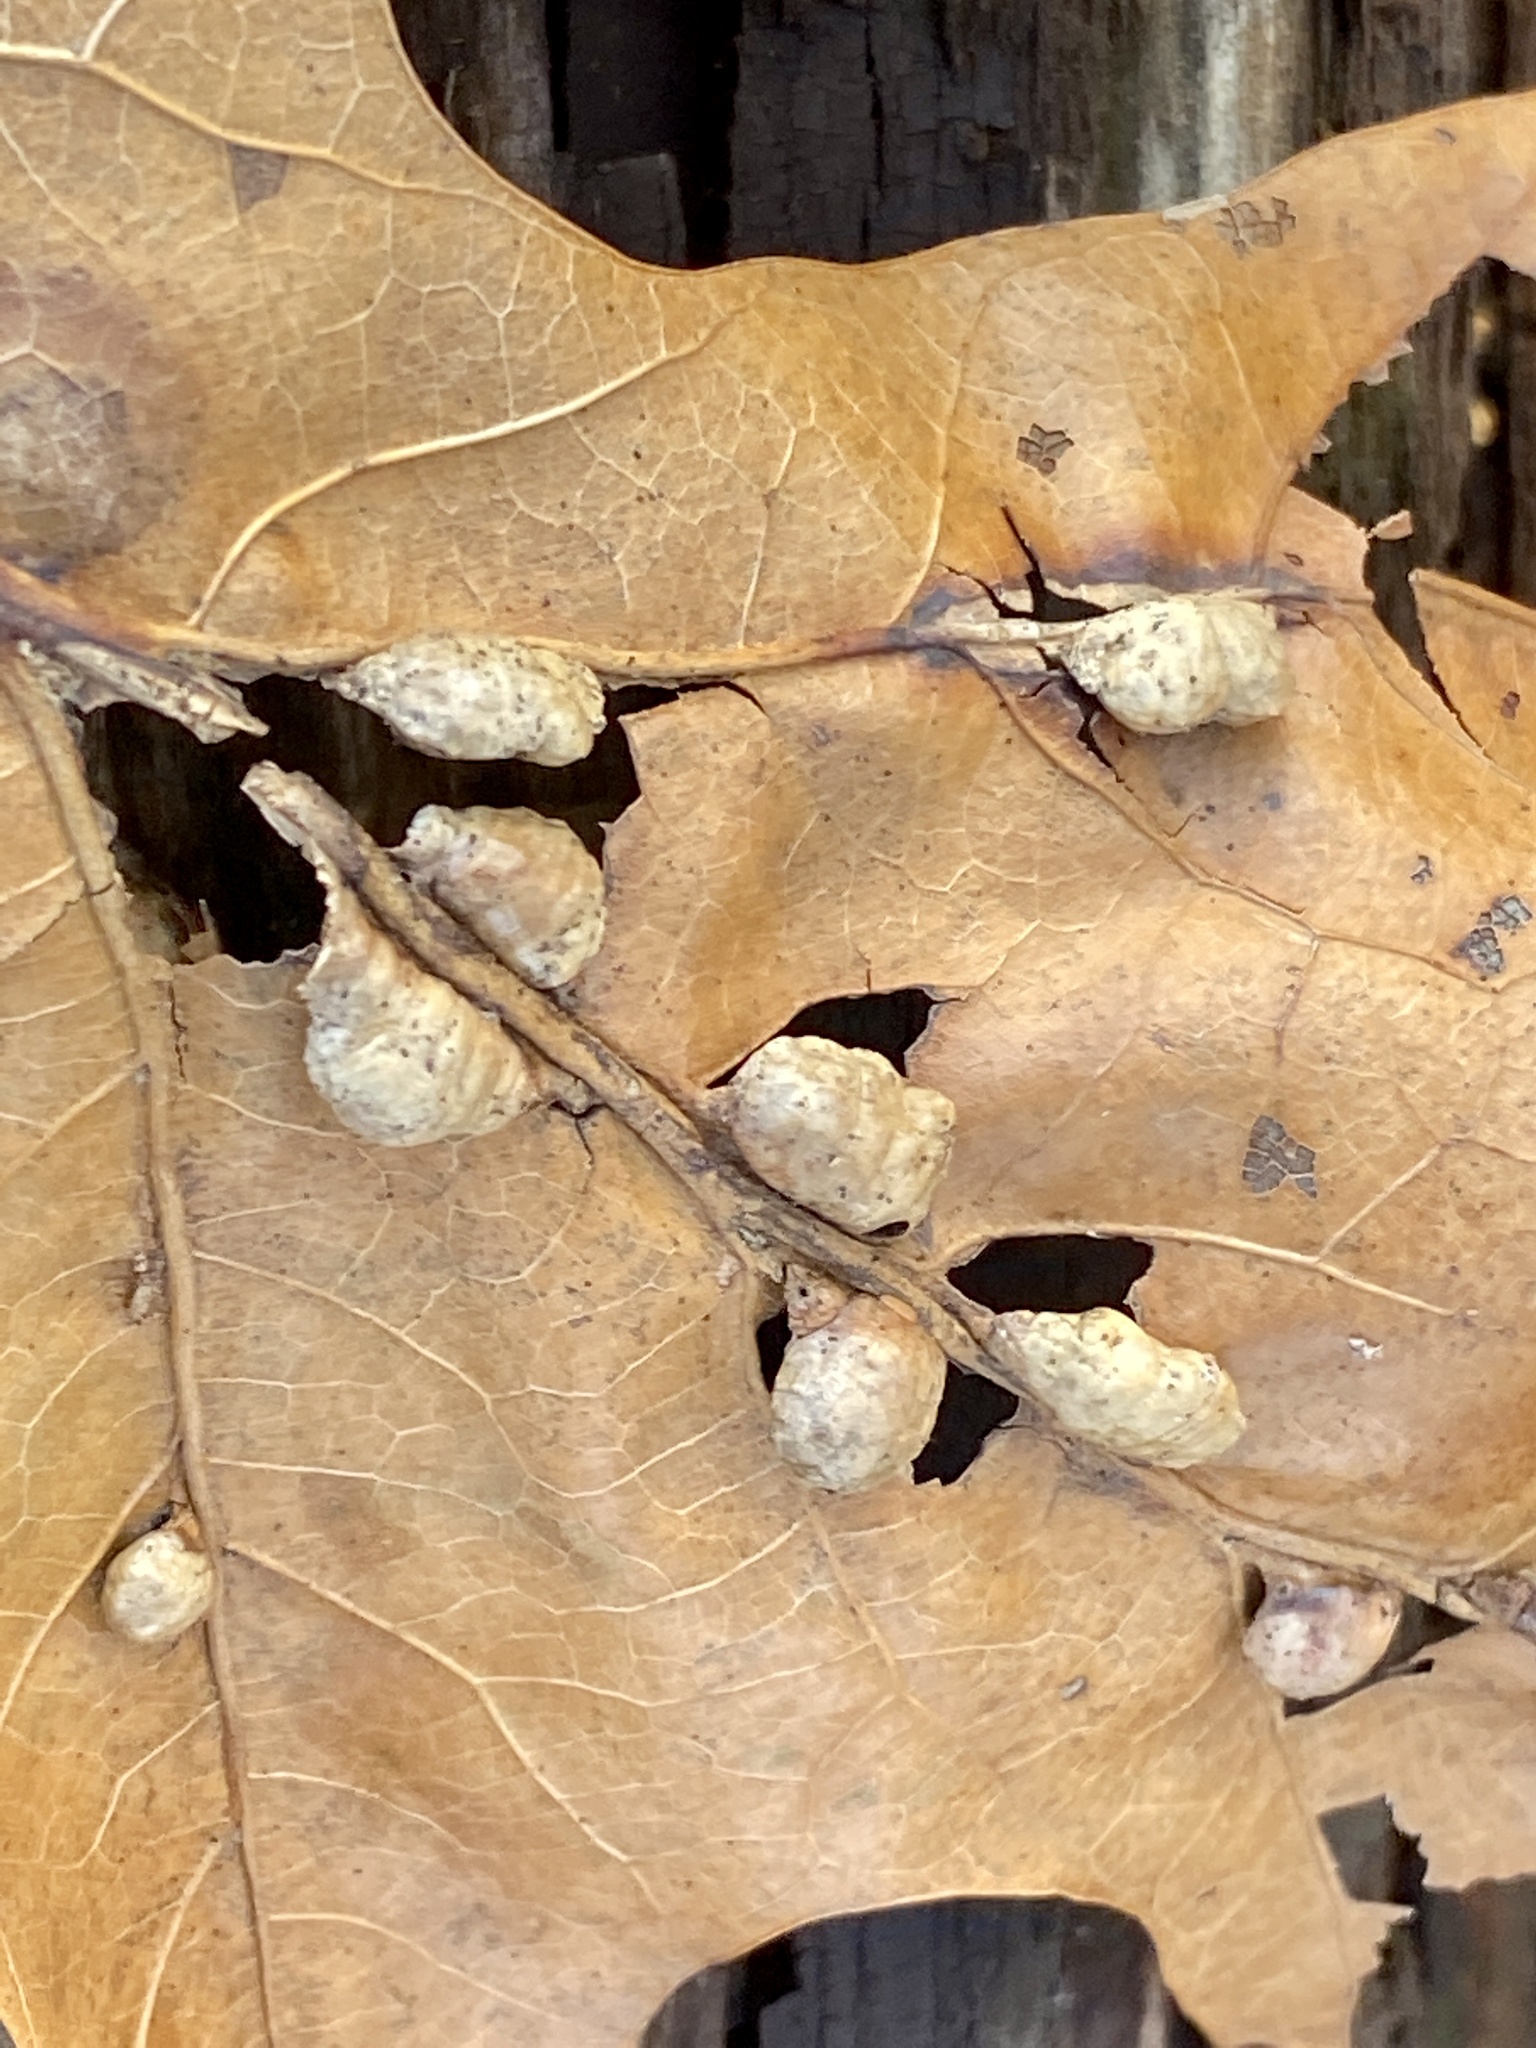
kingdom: Animalia
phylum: Arthropoda
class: Insecta
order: Diptera
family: Cecidomyiidae
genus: Macrodiplosis
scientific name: Macrodiplosis majalis
